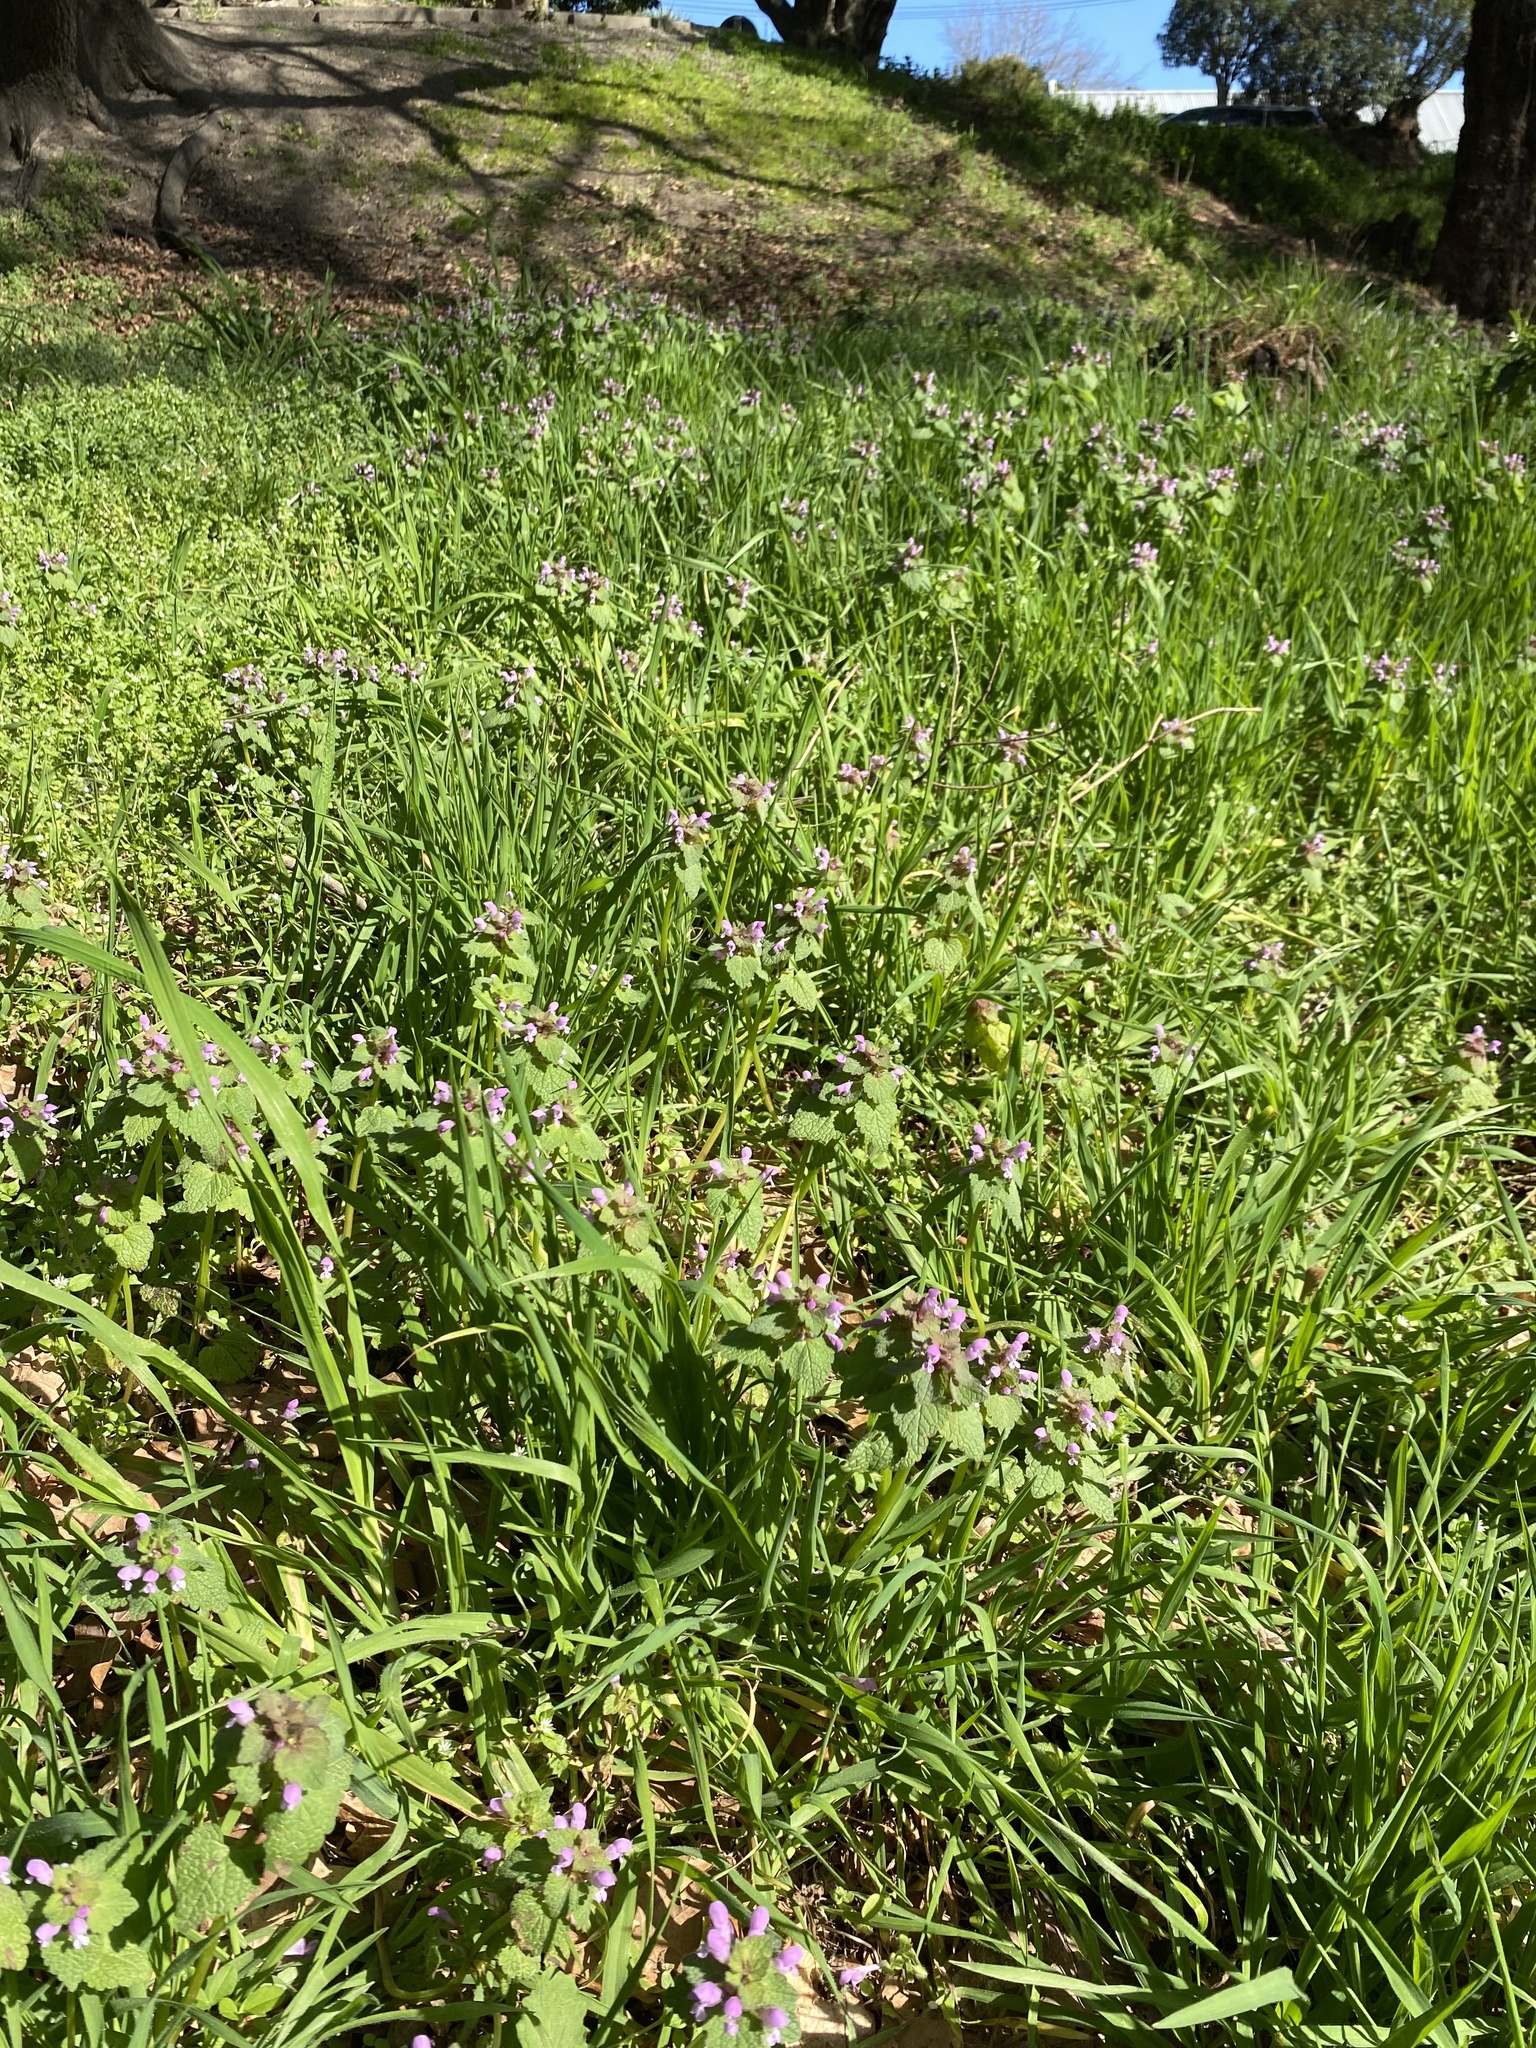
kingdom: Plantae
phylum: Tracheophyta
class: Magnoliopsida
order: Lamiales
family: Lamiaceae
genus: Lamium
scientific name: Lamium purpureum
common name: Red dead-nettle
